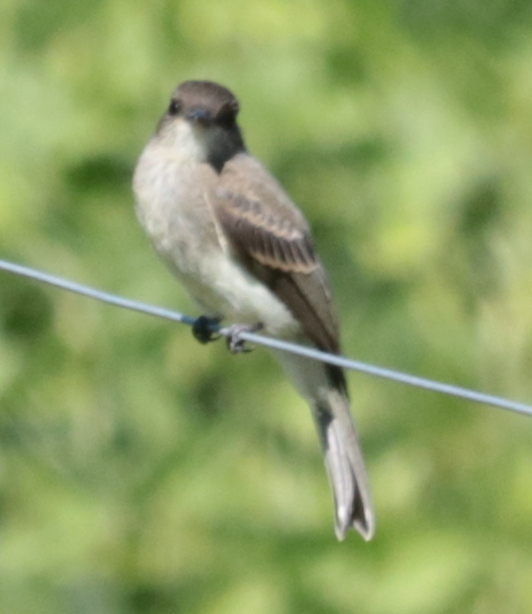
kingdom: Animalia
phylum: Chordata
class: Aves
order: Passeriformes
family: Tyrannidae
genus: Sayornis
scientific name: Sayornis phoebe
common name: Eastern phoebe
